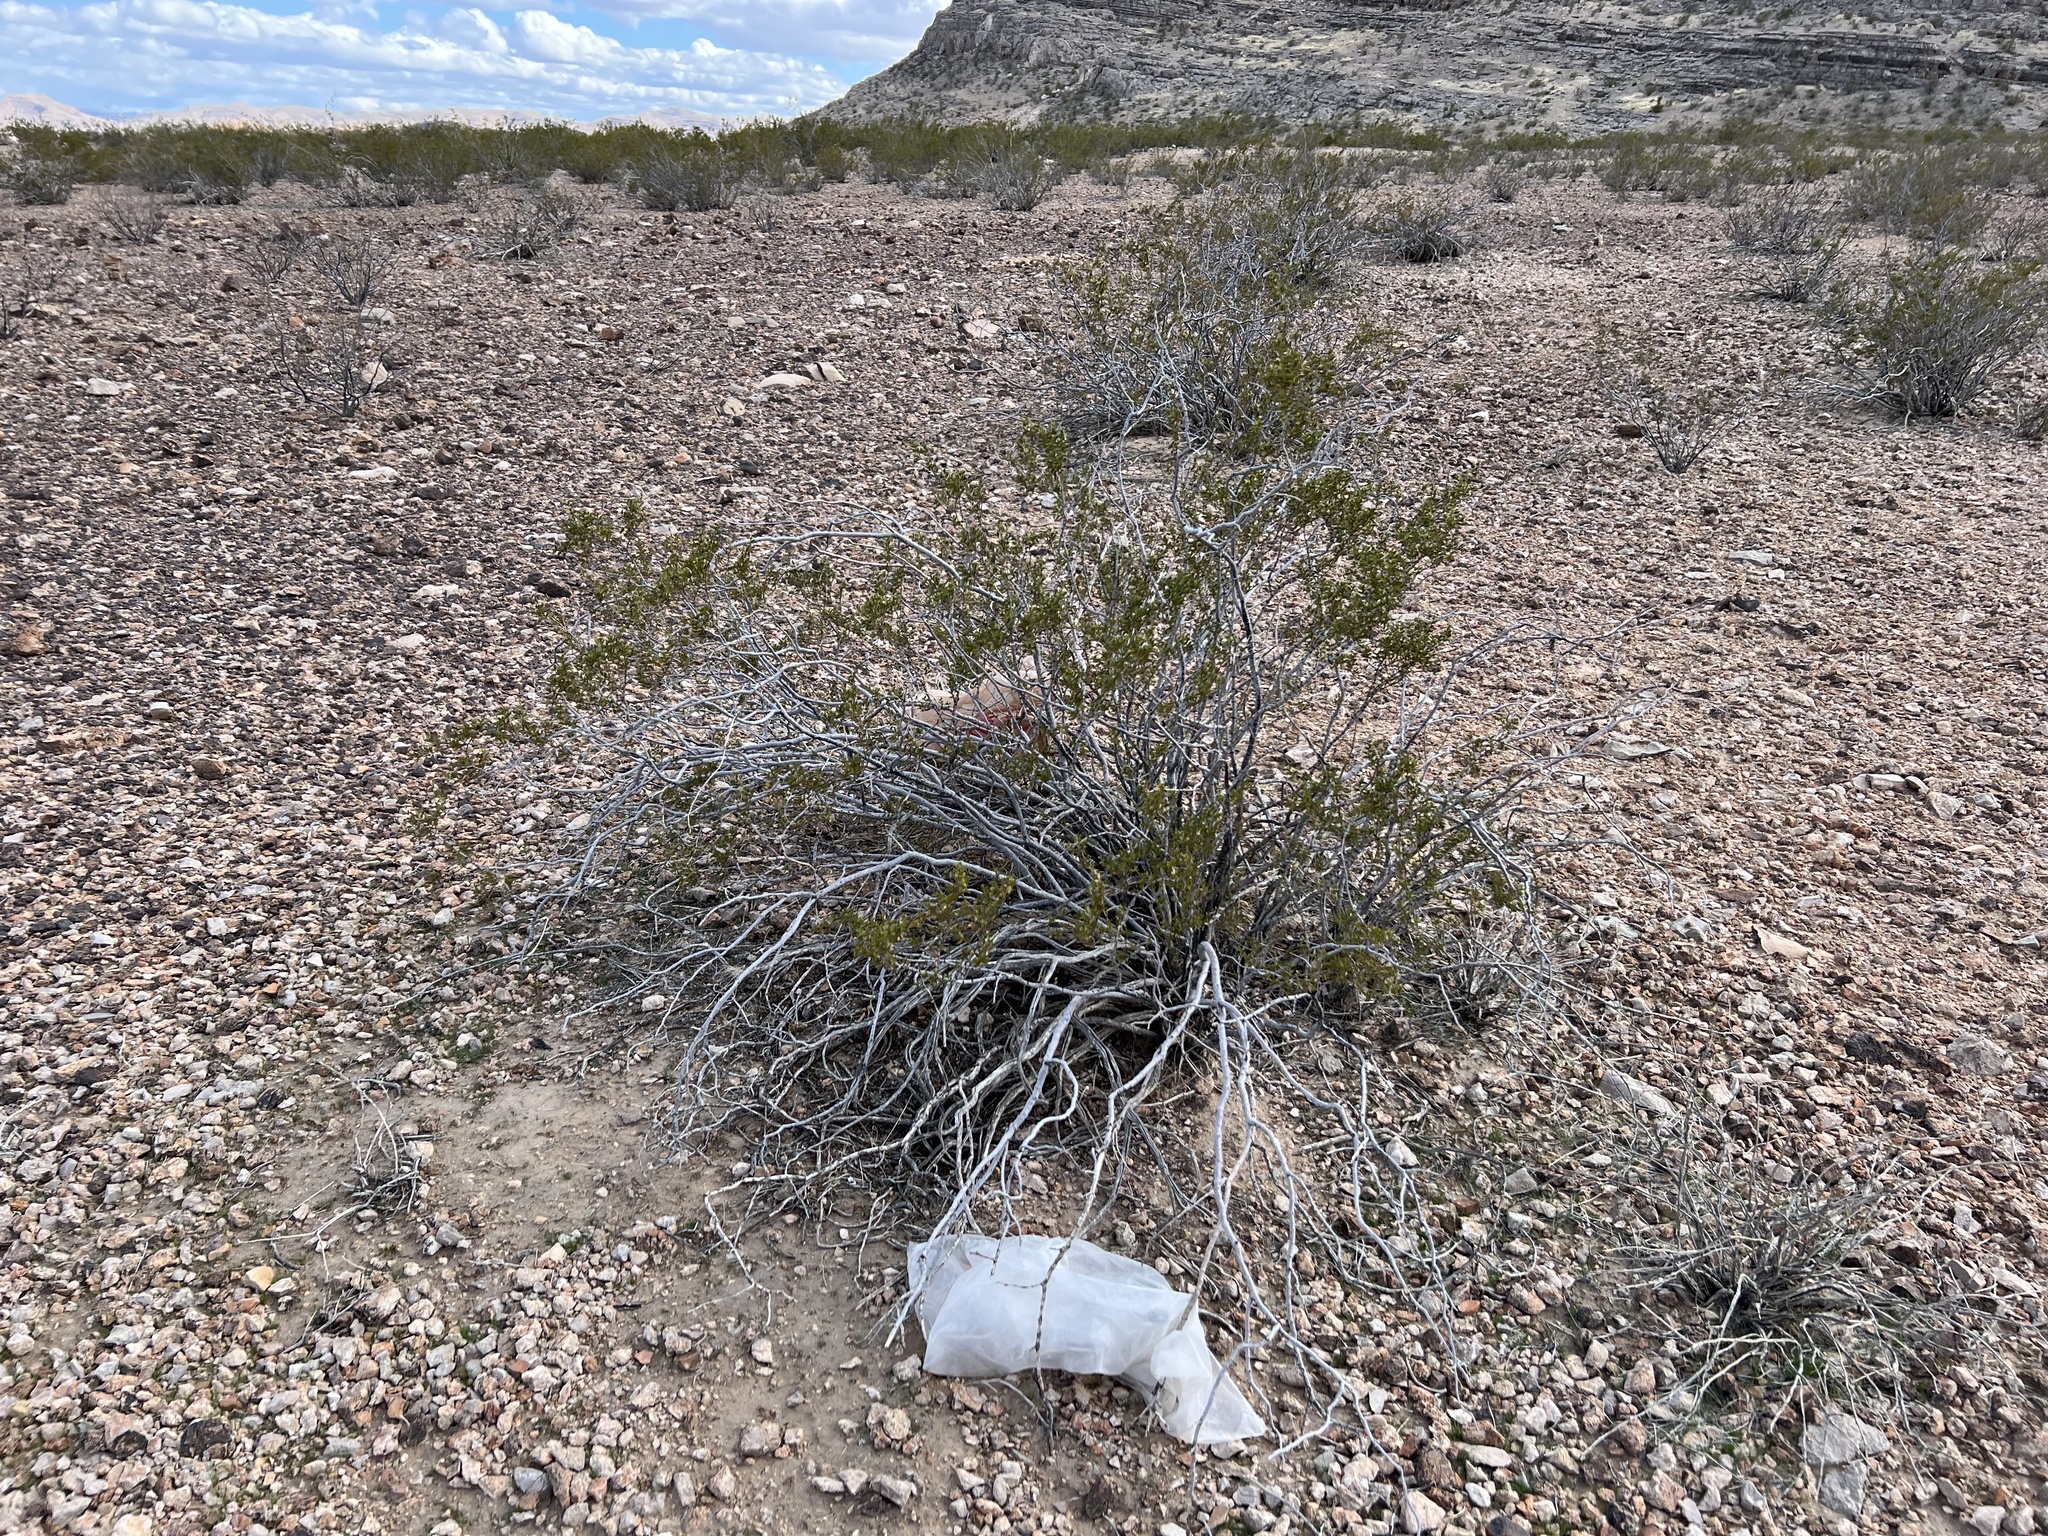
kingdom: Plantae
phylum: Tracheophyta
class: Magnoliopsida
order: Zygophyllales
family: Zygophyllaceae
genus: Larrea
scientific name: Larrea tridentata
